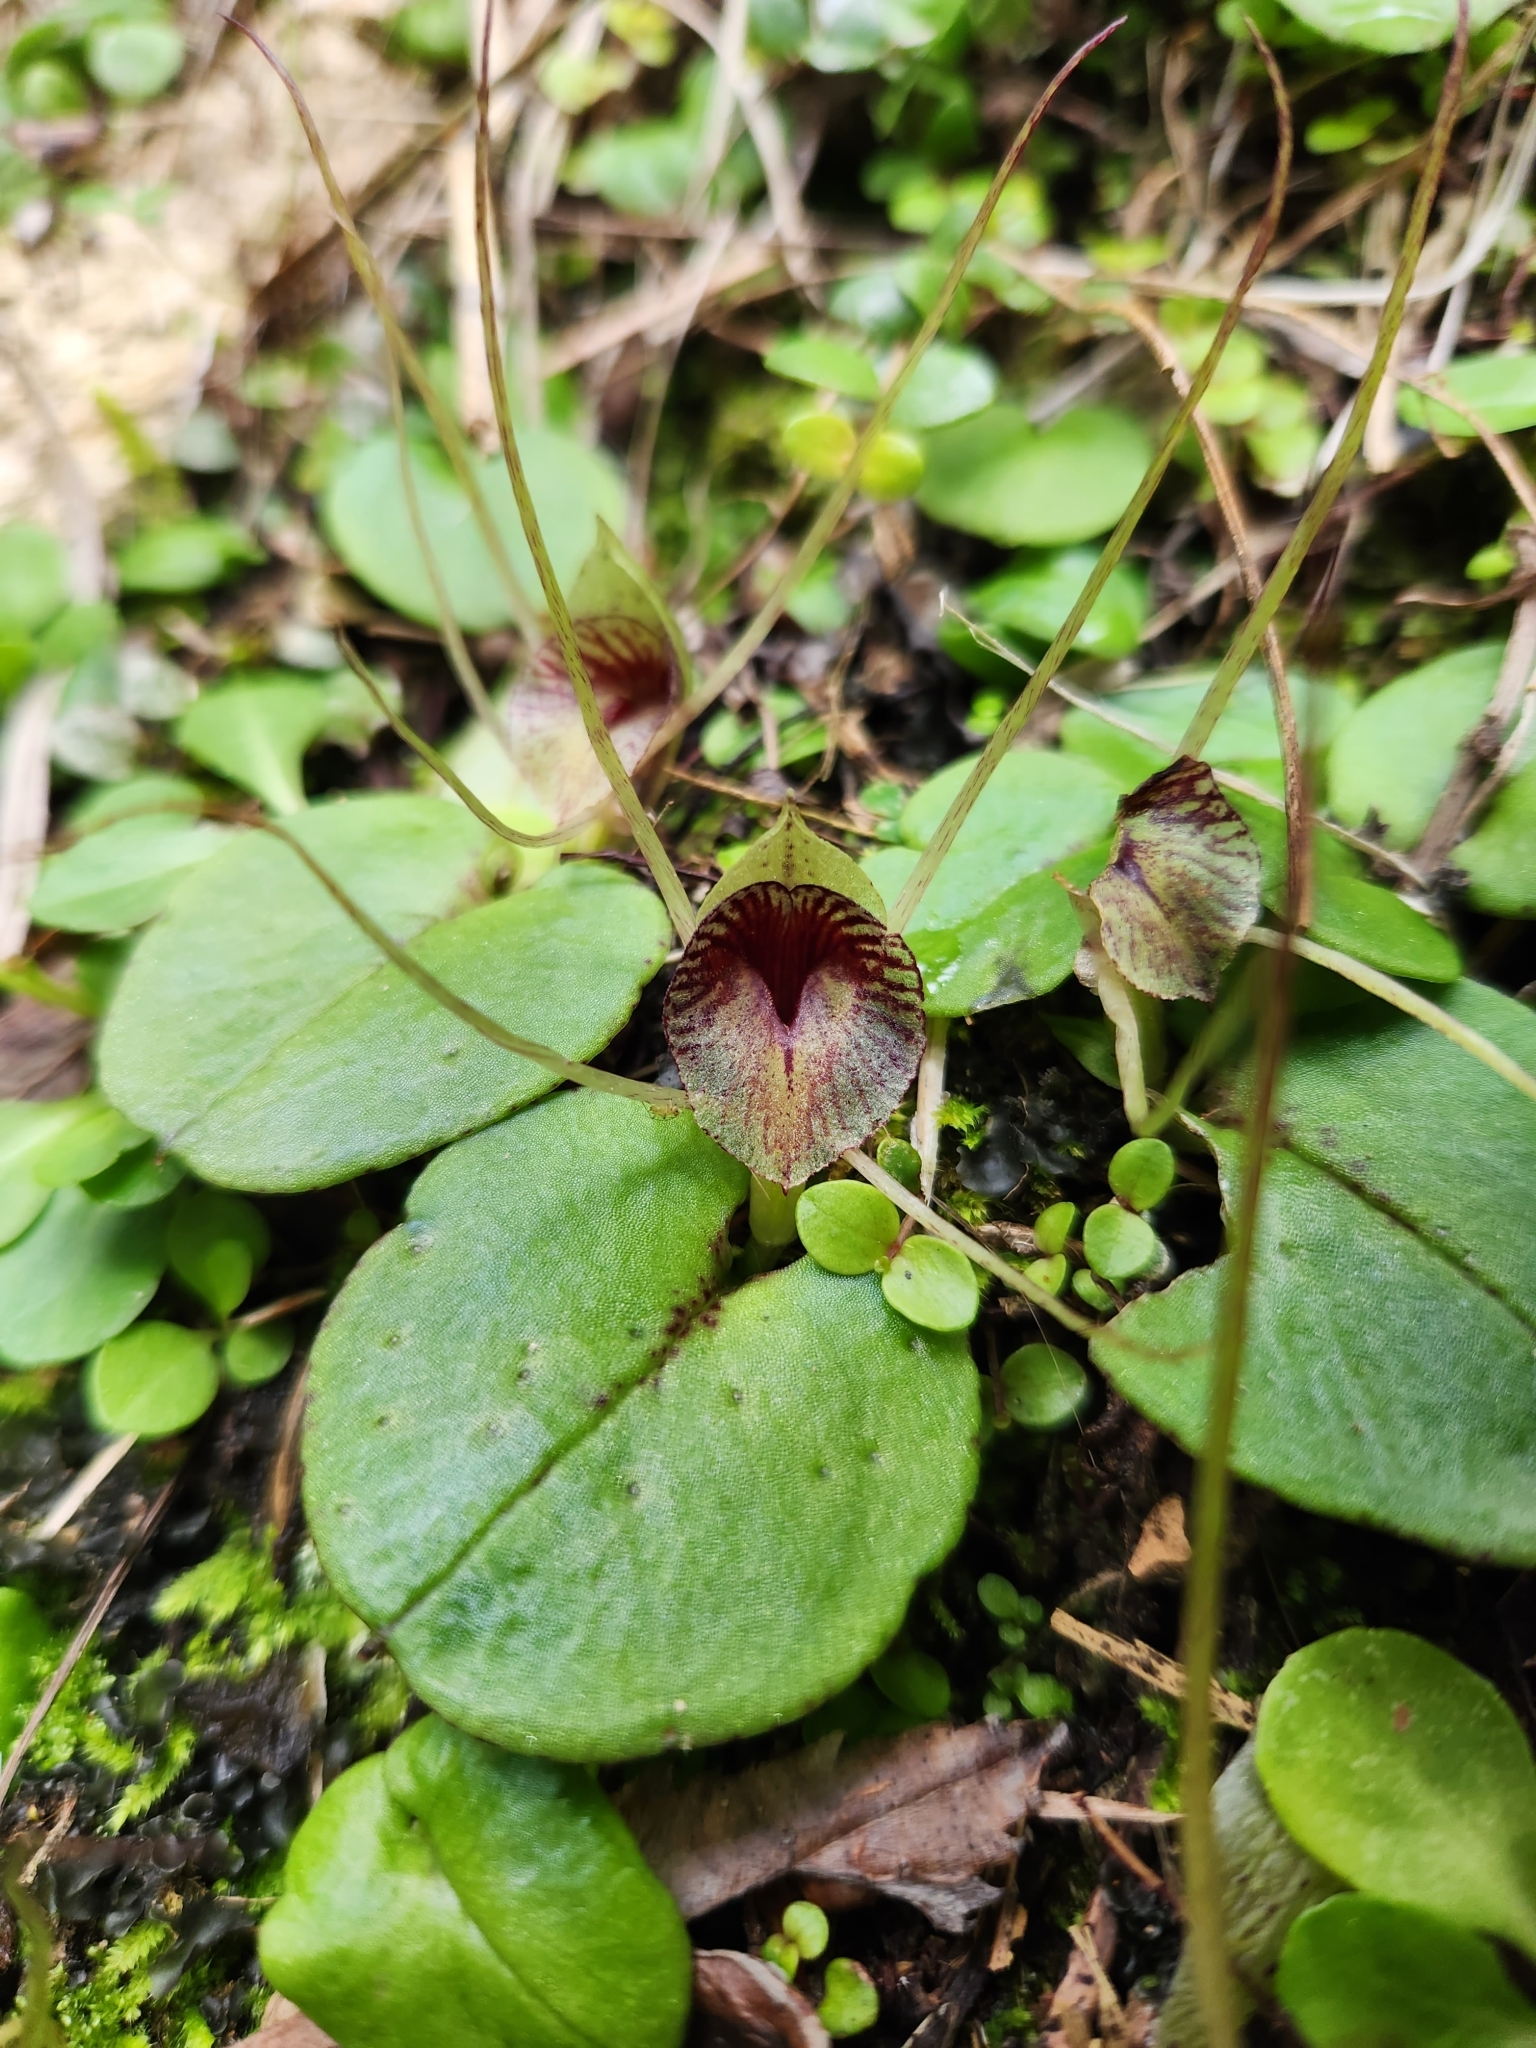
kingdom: Plantae
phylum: Tracheophyta
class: Liliopsida
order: Asparagales
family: Orchidaceae
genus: Corybas
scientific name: Corybas hatchii
